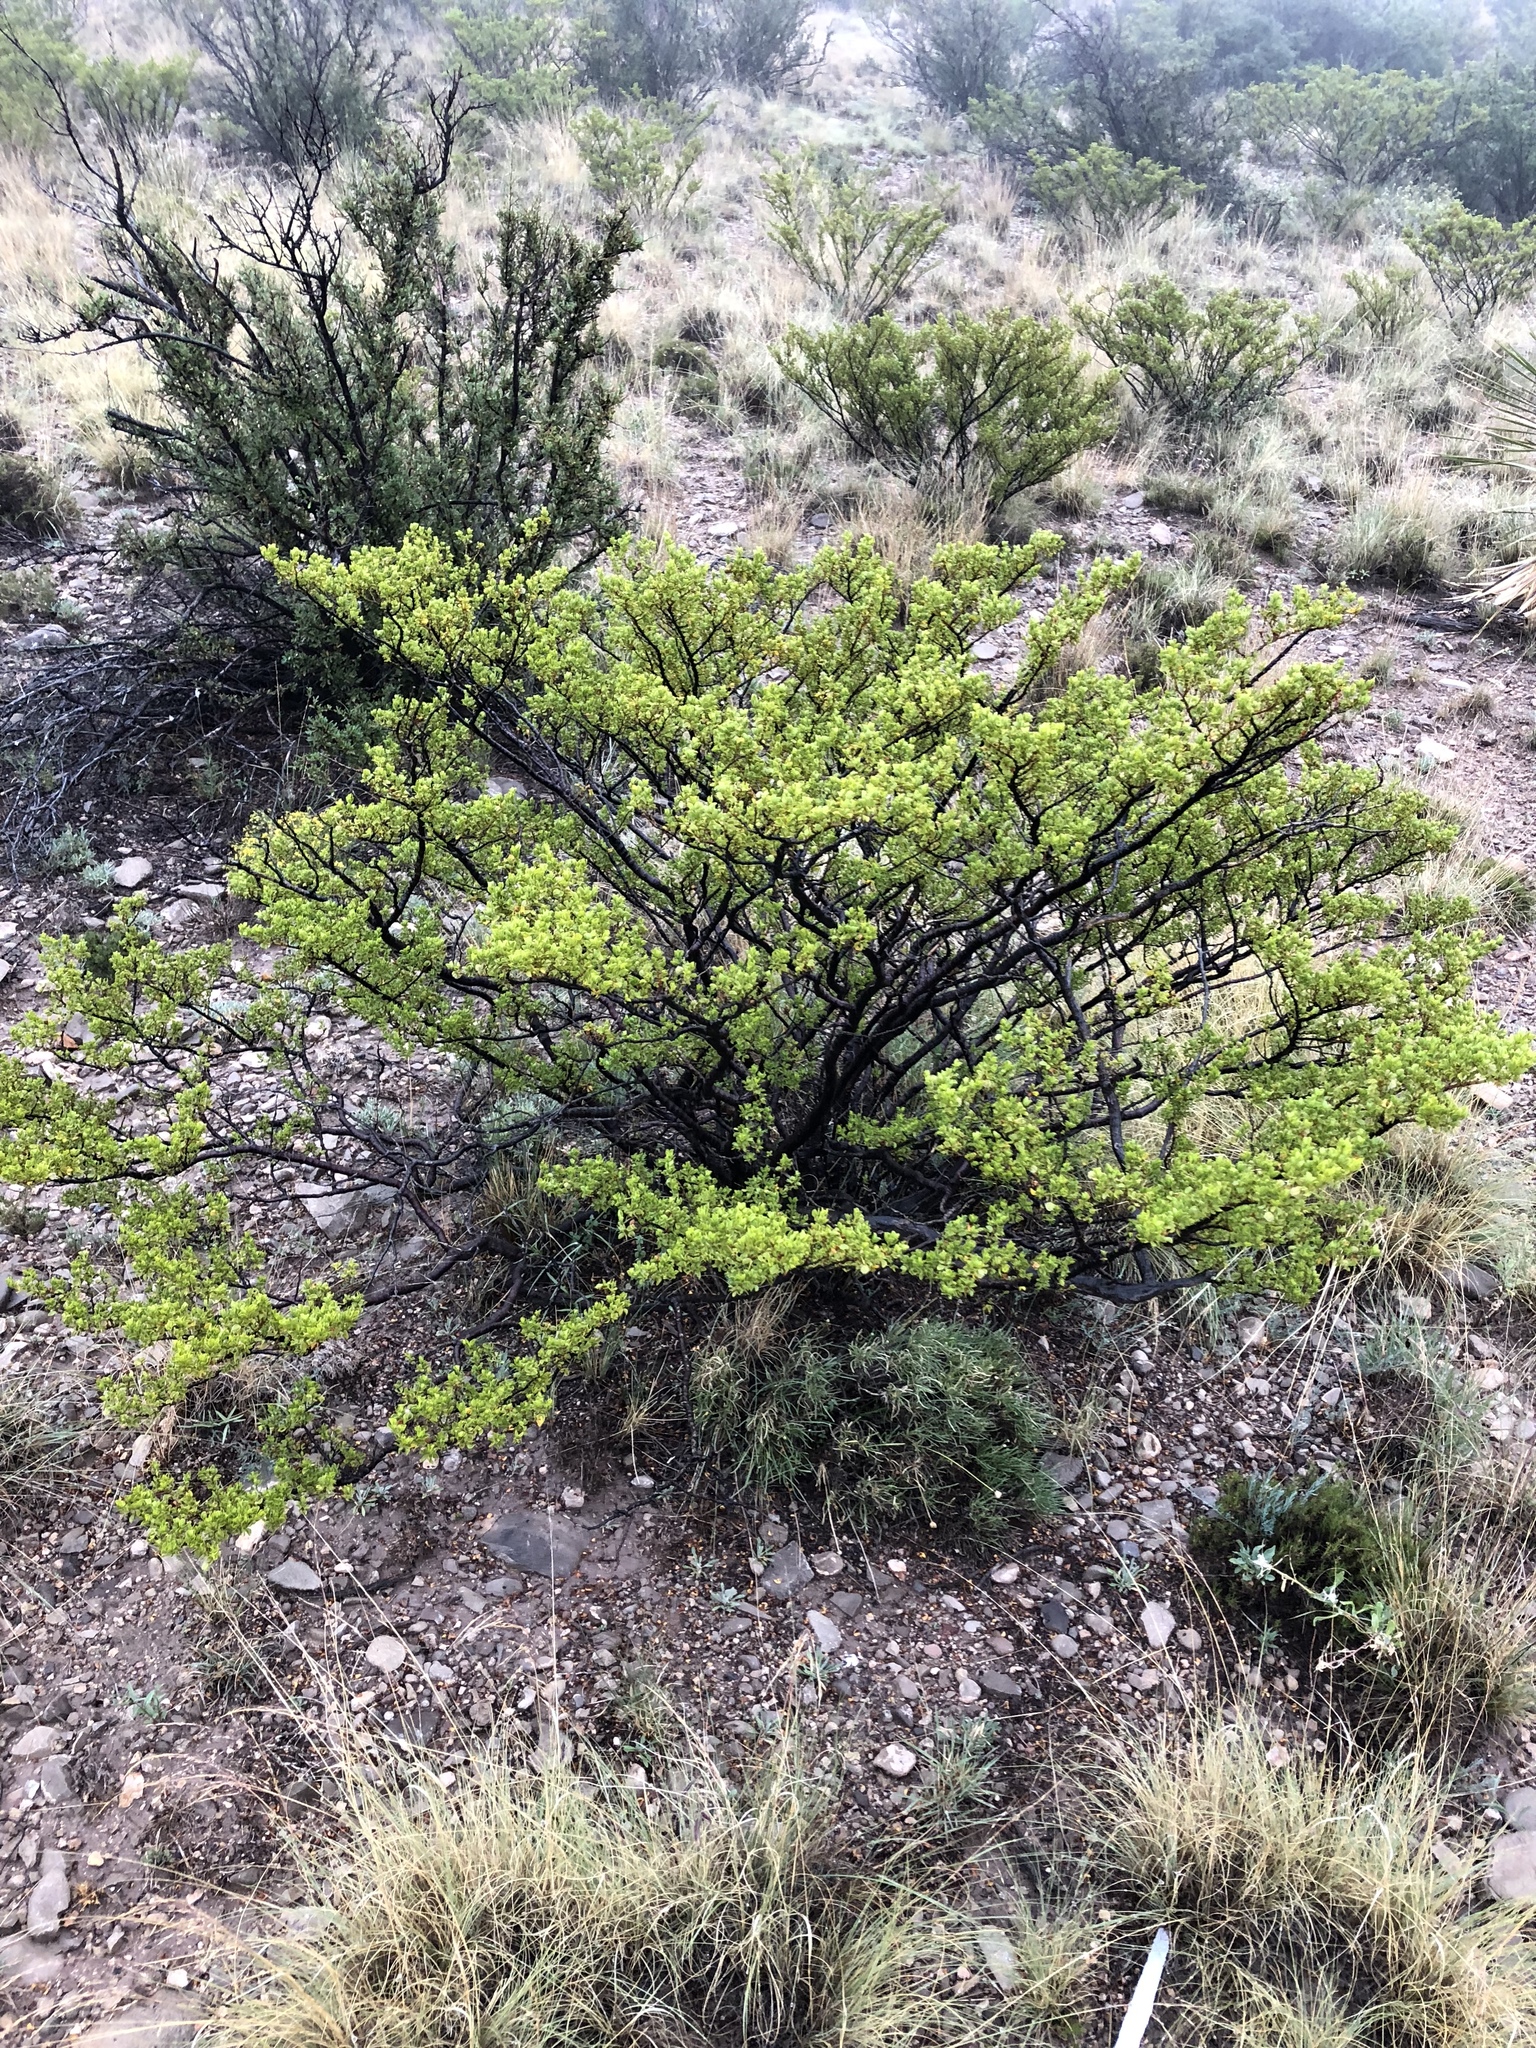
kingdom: Plantae
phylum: Tracheophyta
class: Magnoliopsida
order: Zygophyllales
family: Zygophyllaceae
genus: Larrea
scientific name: Larrea tridentata
